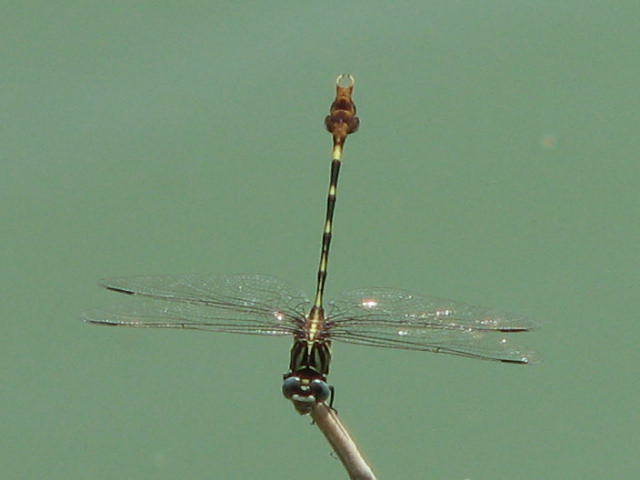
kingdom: Animalia
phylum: Arthropoda
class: Insecta
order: Odonata
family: Gomphidae
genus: Phyllogomphoides
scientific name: Phyllogomphoides albrighti
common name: Five-striped leaftail
